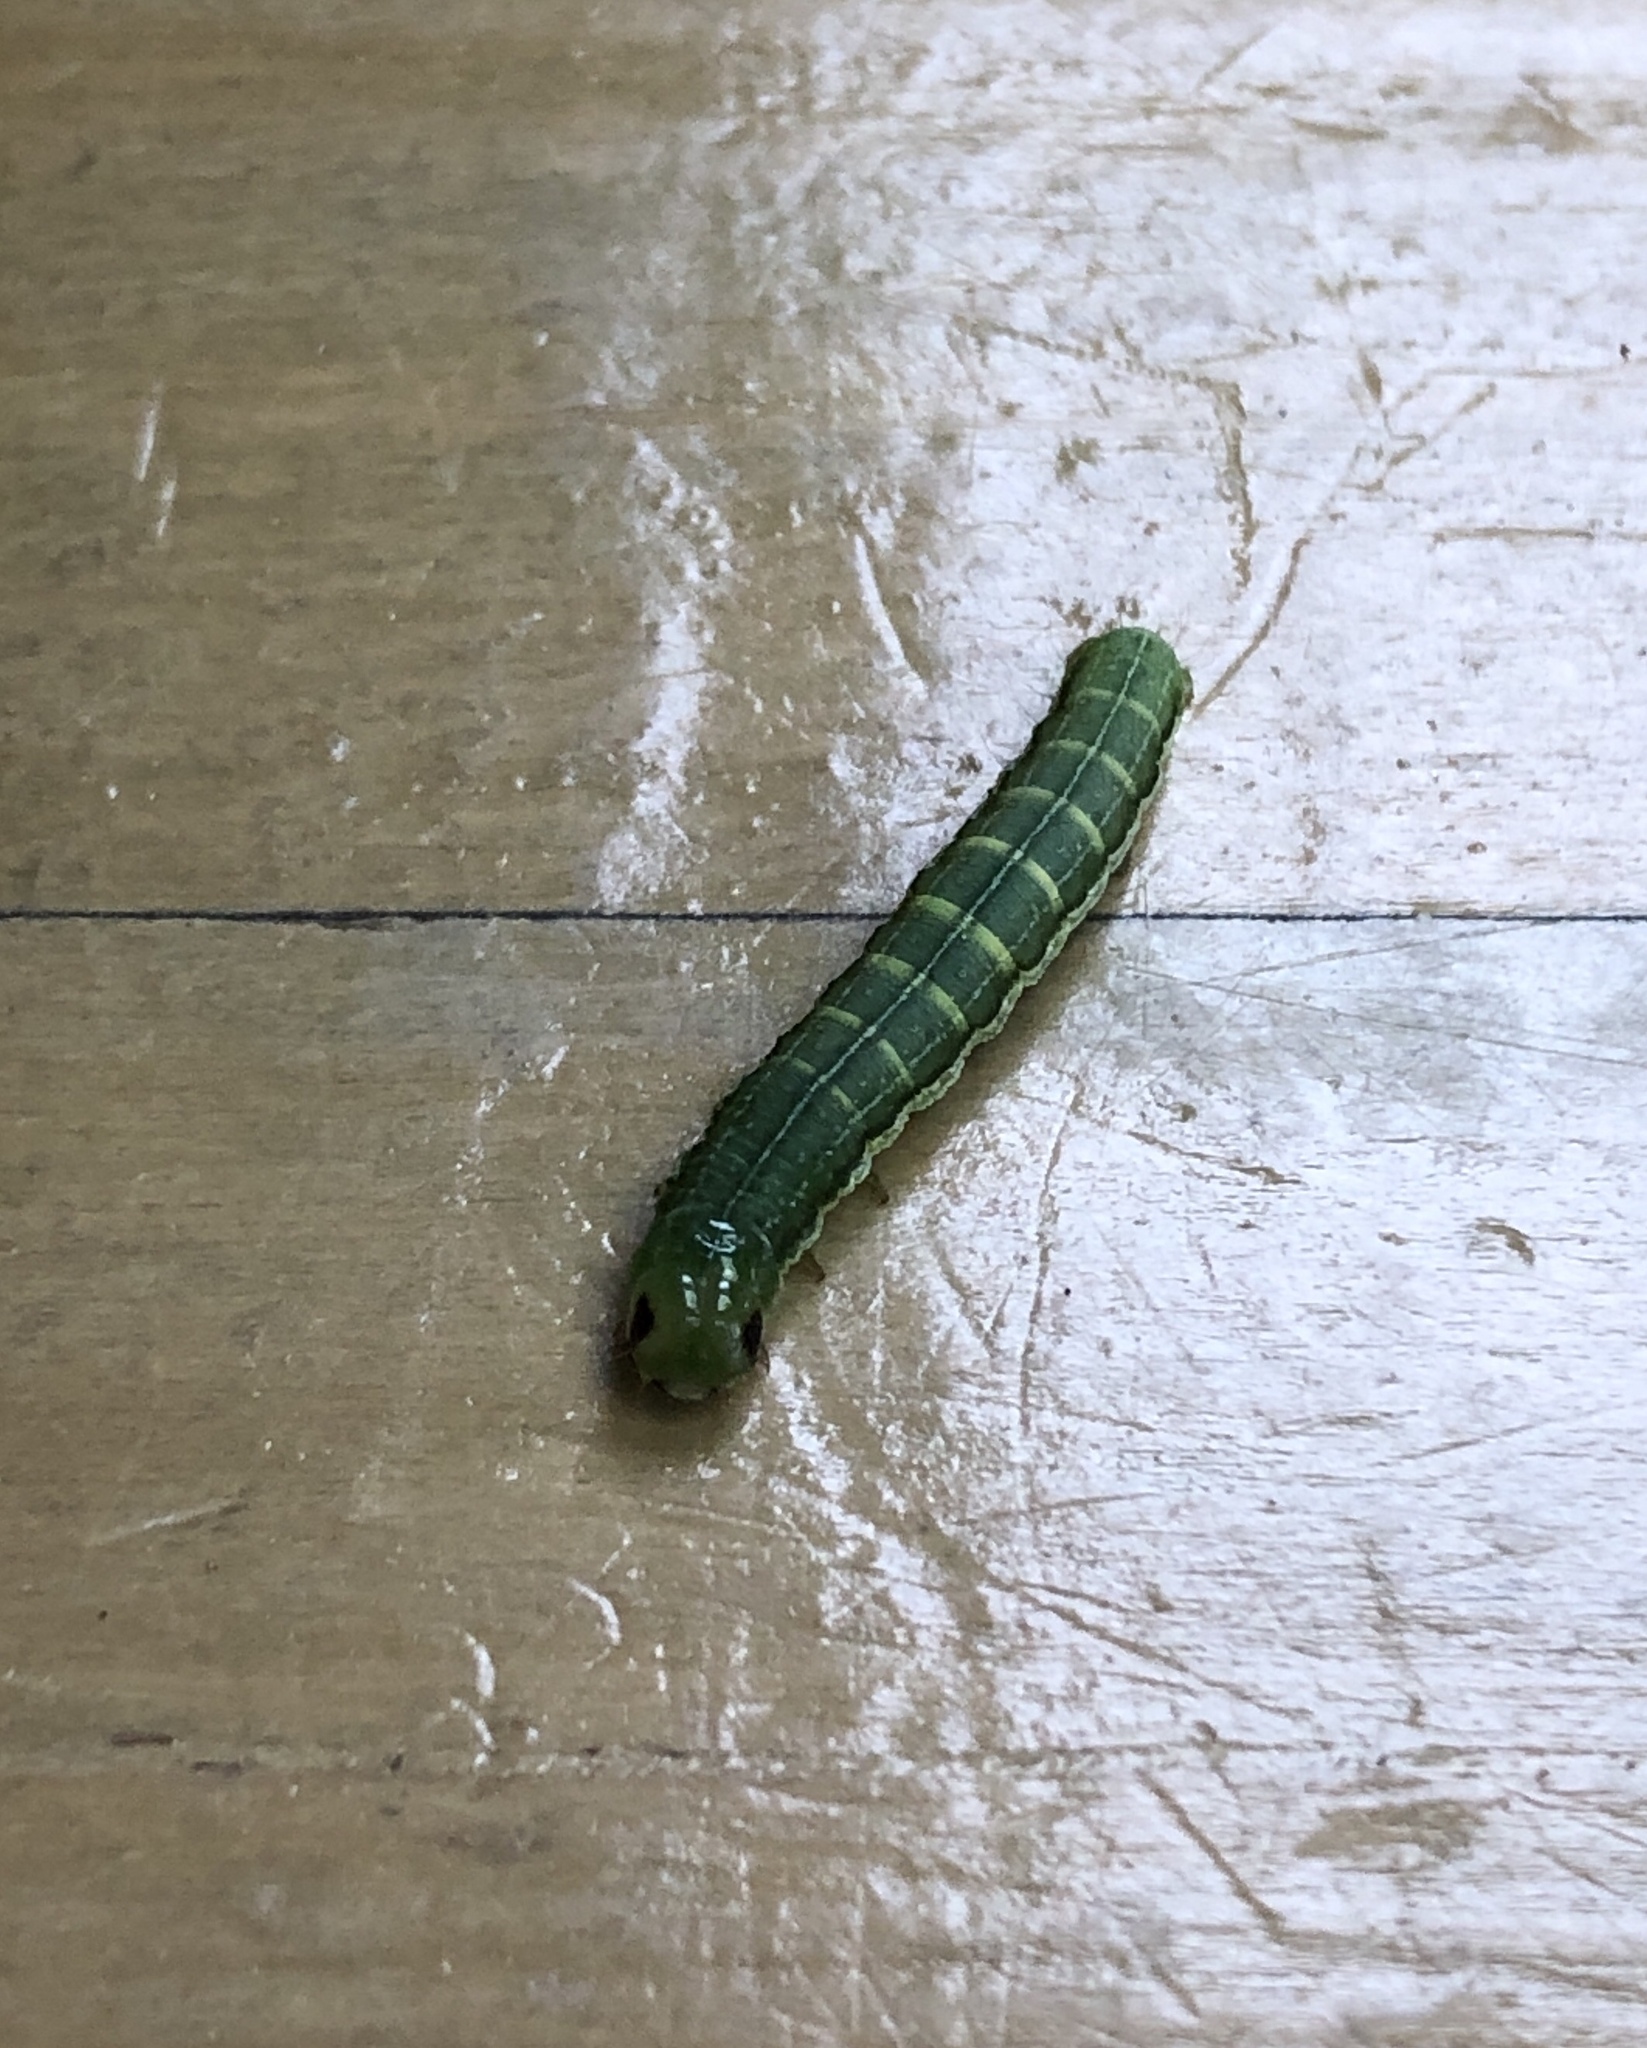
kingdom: Animalia
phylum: Arthropoda
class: Insecta
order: Lepidoptera
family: Noctuidae
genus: Loscopia
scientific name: Loscopia velata
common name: Veiled ear moth
